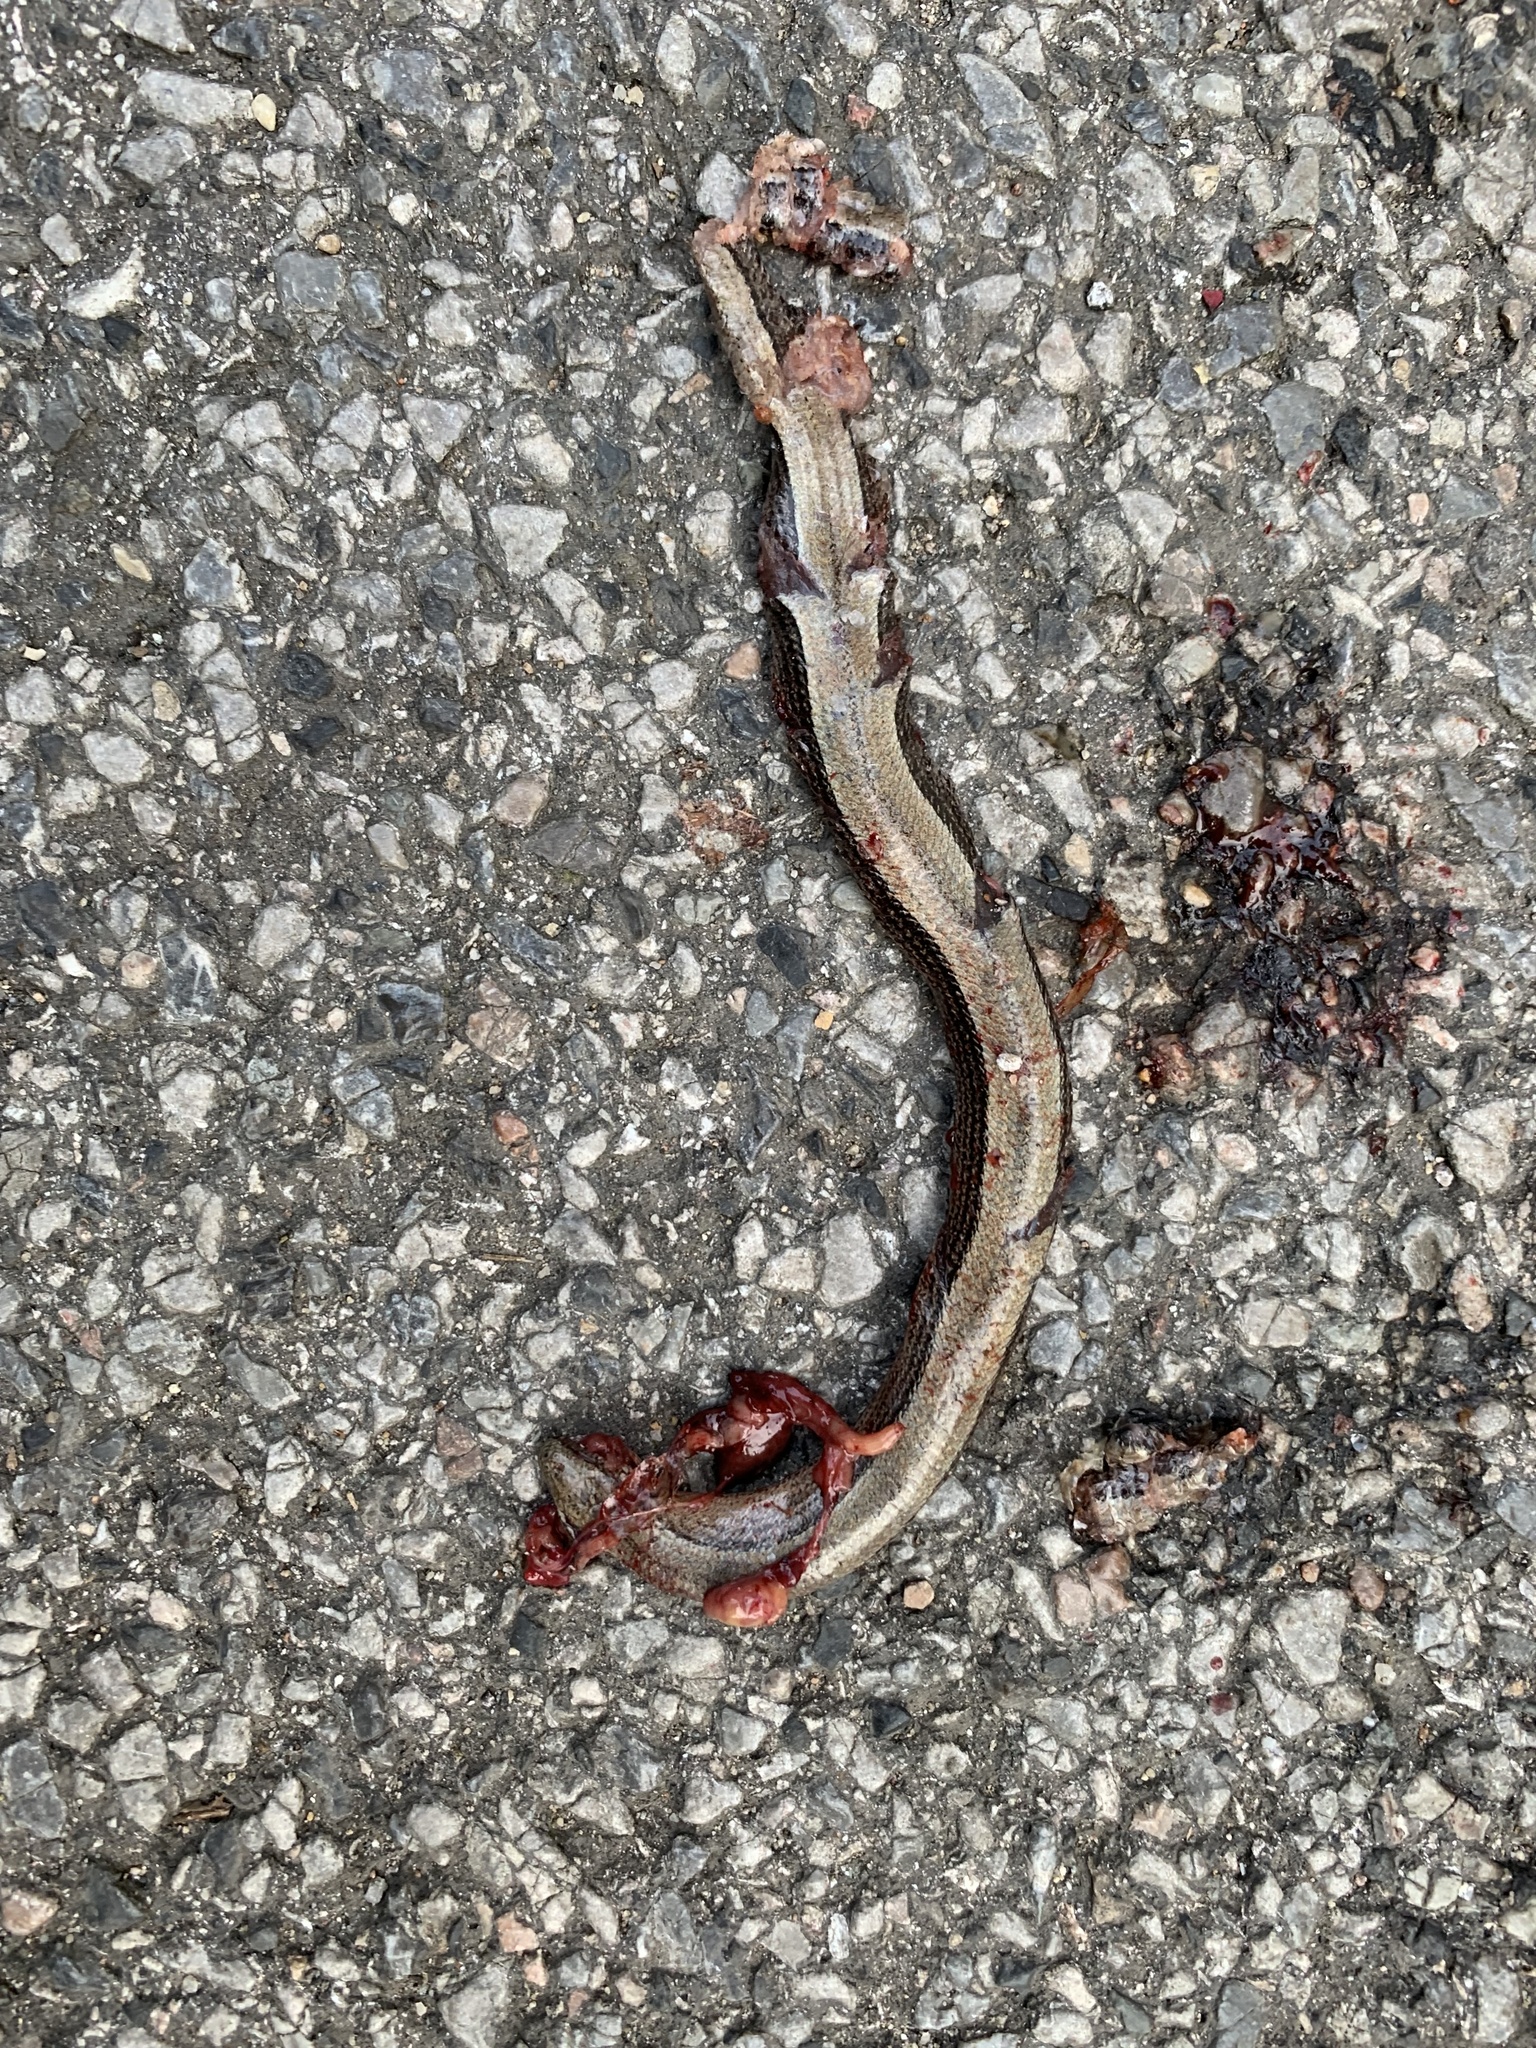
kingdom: Animalia
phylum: Chordata
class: Squamata
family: Anguidae
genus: Anguis
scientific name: Anguis fragilis
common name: Slow worm
